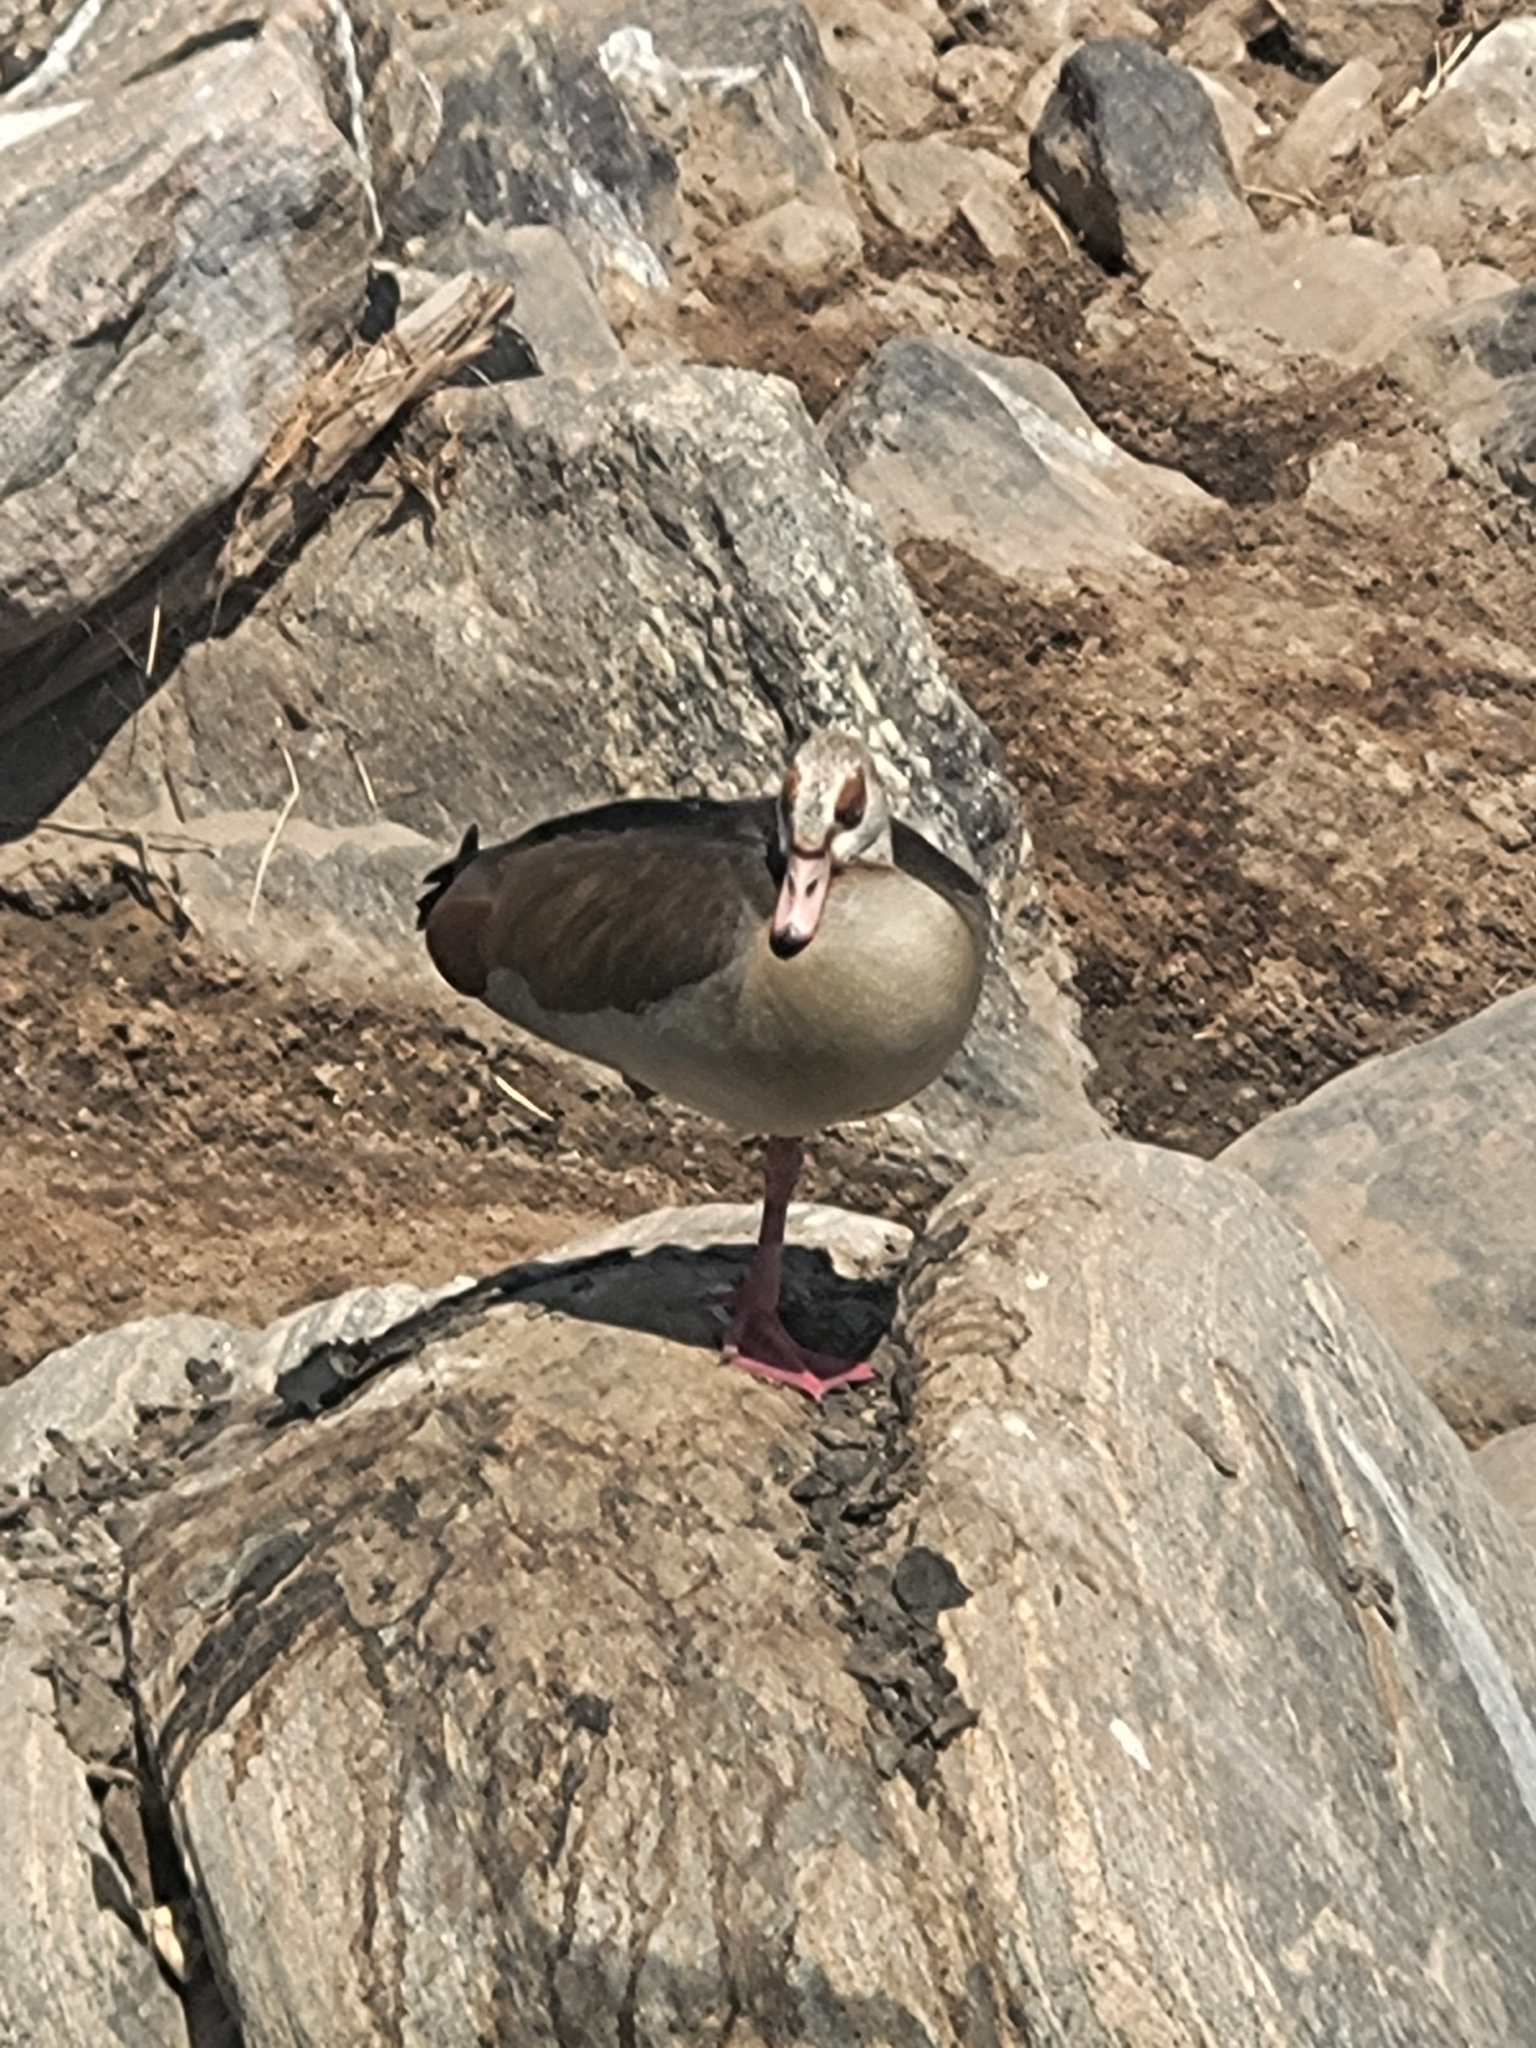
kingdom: Animalia
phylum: Chordata
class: Aves
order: Anseriformes
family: Anatidae
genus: Alopochen
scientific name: Alopochen aegyptiaca
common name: Egyptian goose
